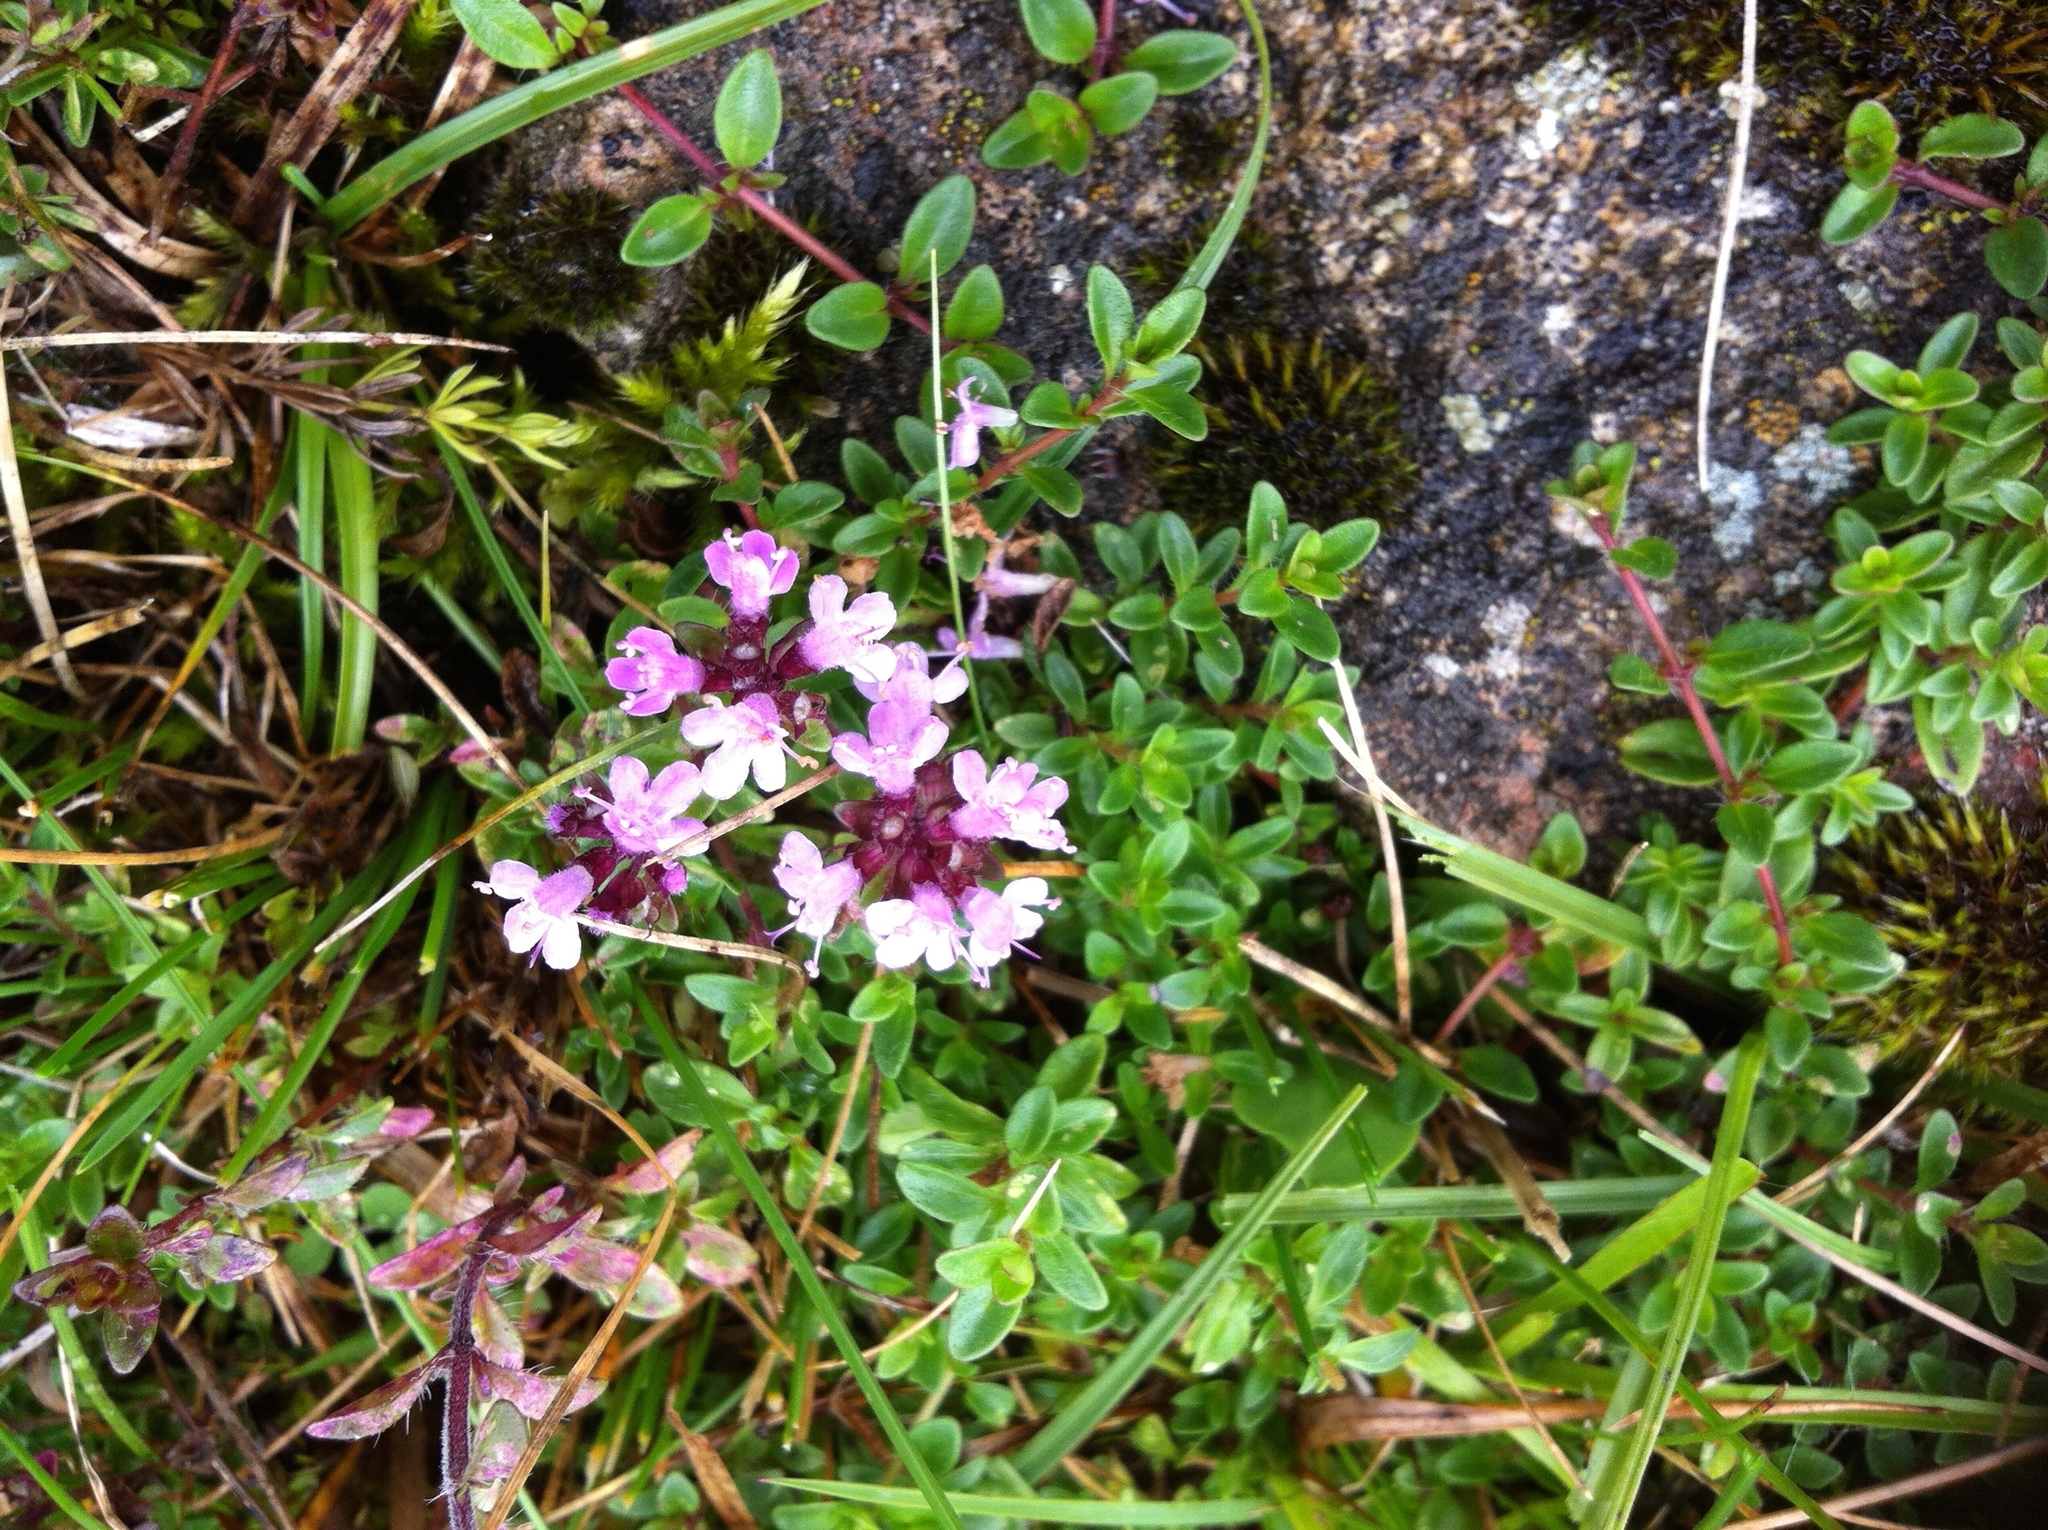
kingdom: Plantae
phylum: Tracheophyta
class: Magnoliopsida
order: Lamiales
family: Lamiaceae
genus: Thymus
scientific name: Thymus pulegioides
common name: Large thyme
